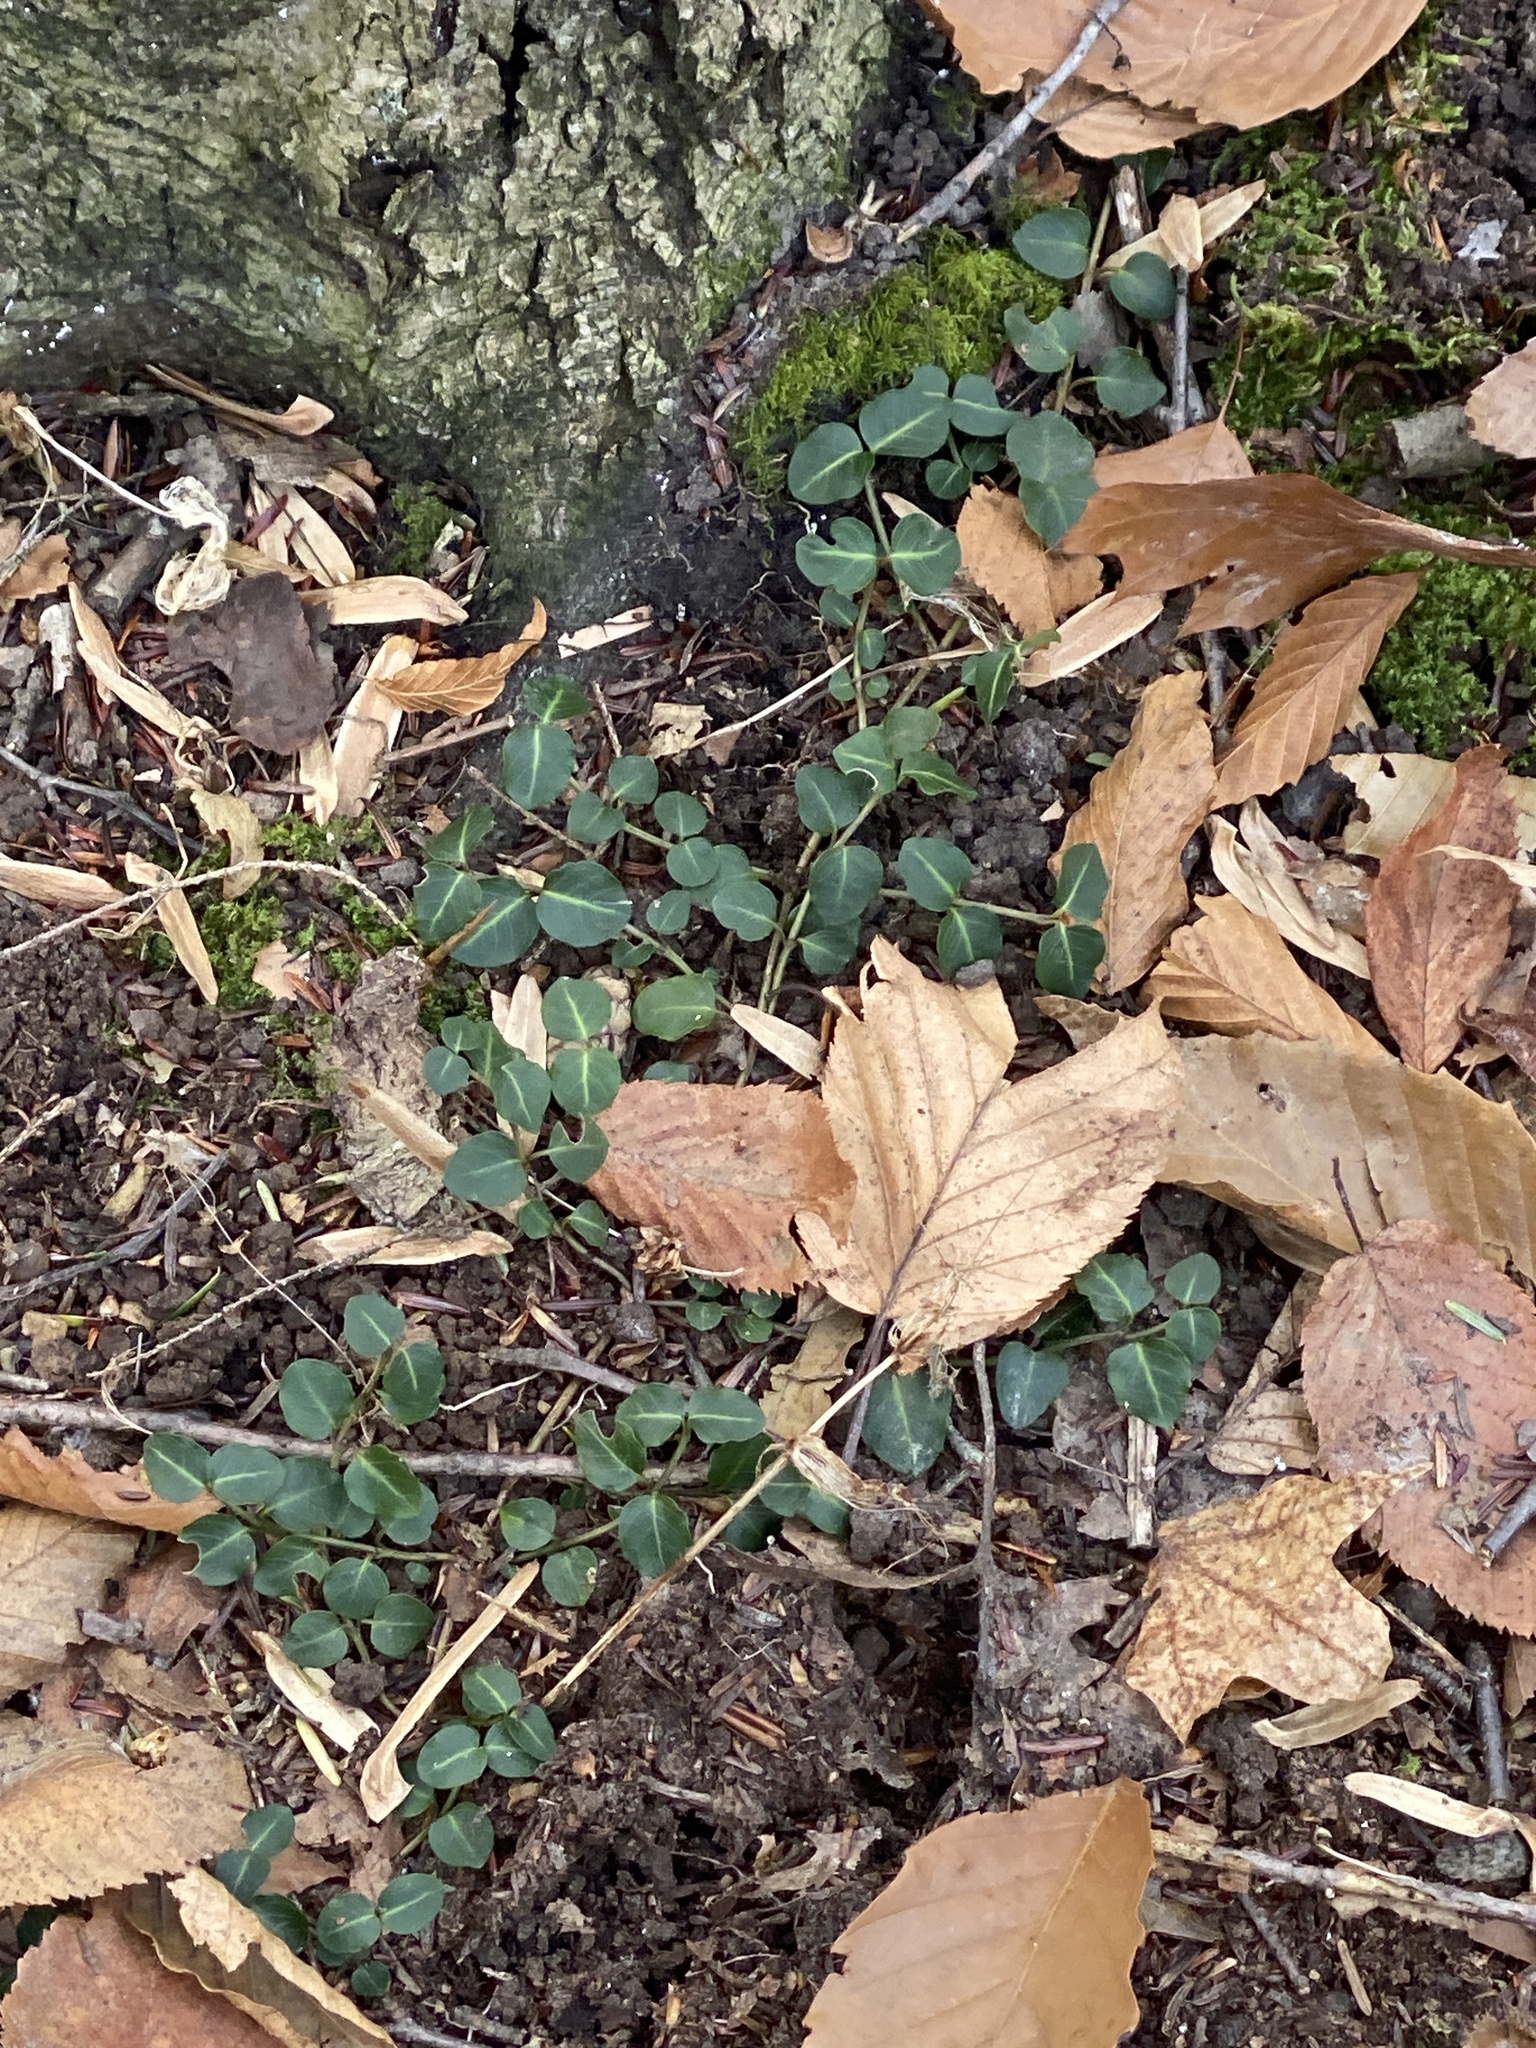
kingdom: Plantae
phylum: Tracheophyta
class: Magnoliopsida
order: Gentianales
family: Rubiaceae
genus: Mitchella
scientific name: Mitchella repens
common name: Partridge-berry
